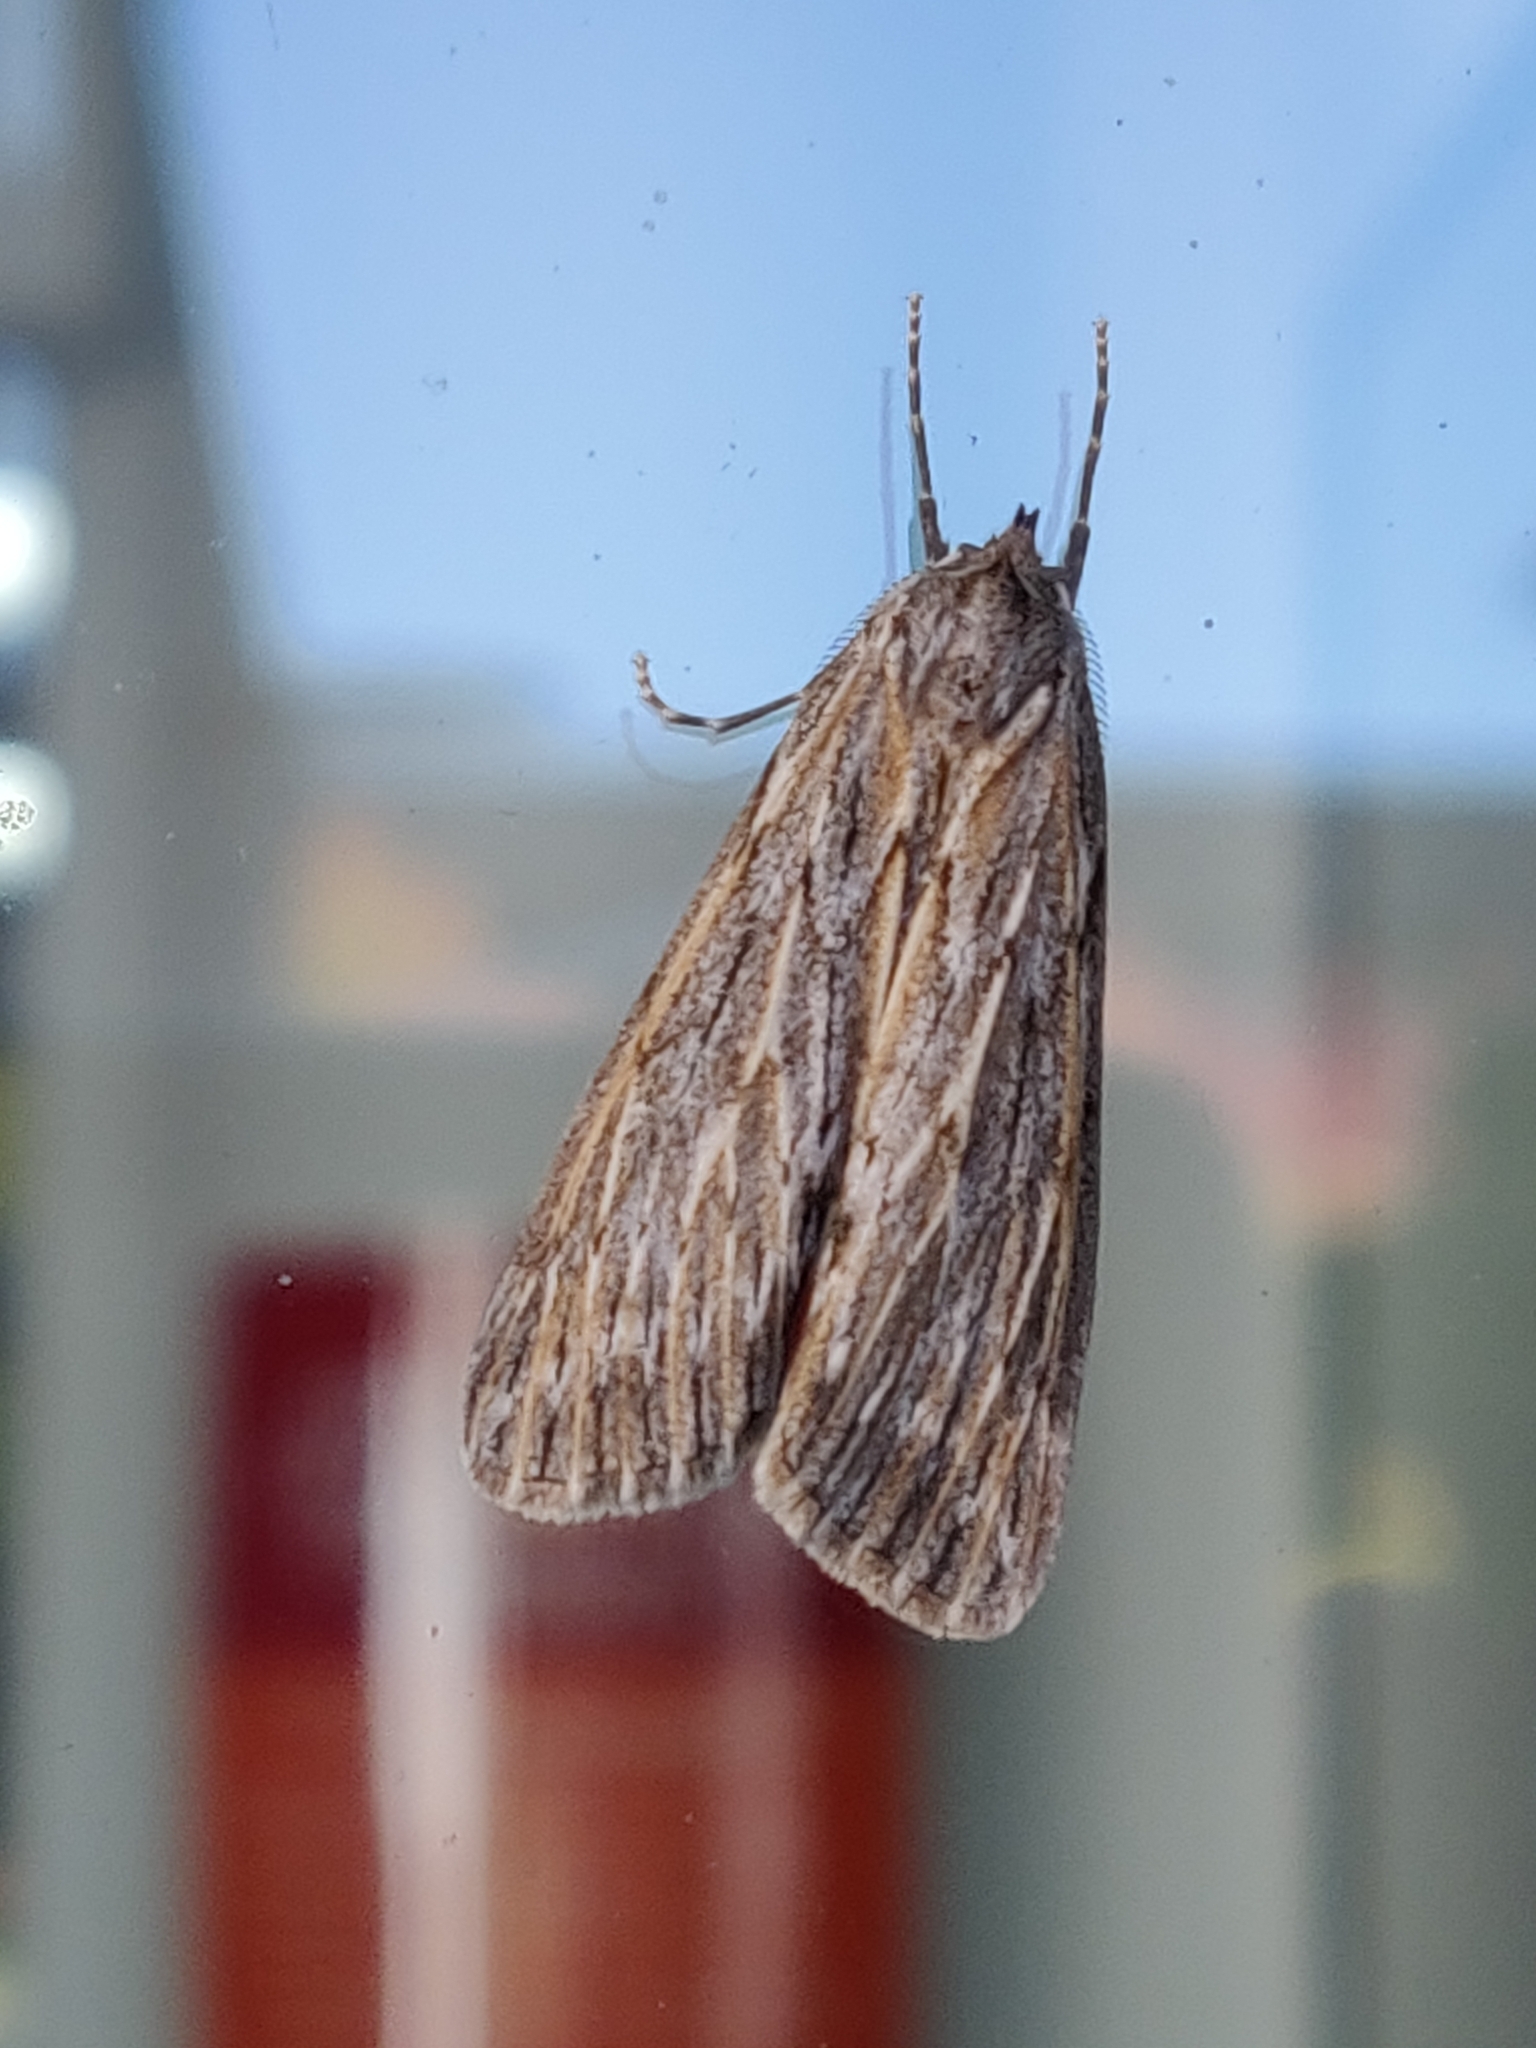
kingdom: Animalia
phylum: Arthropoda
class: Insecta
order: Lepidoptera
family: Geometridae
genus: Ciampa
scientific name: Ciampa arietaria
